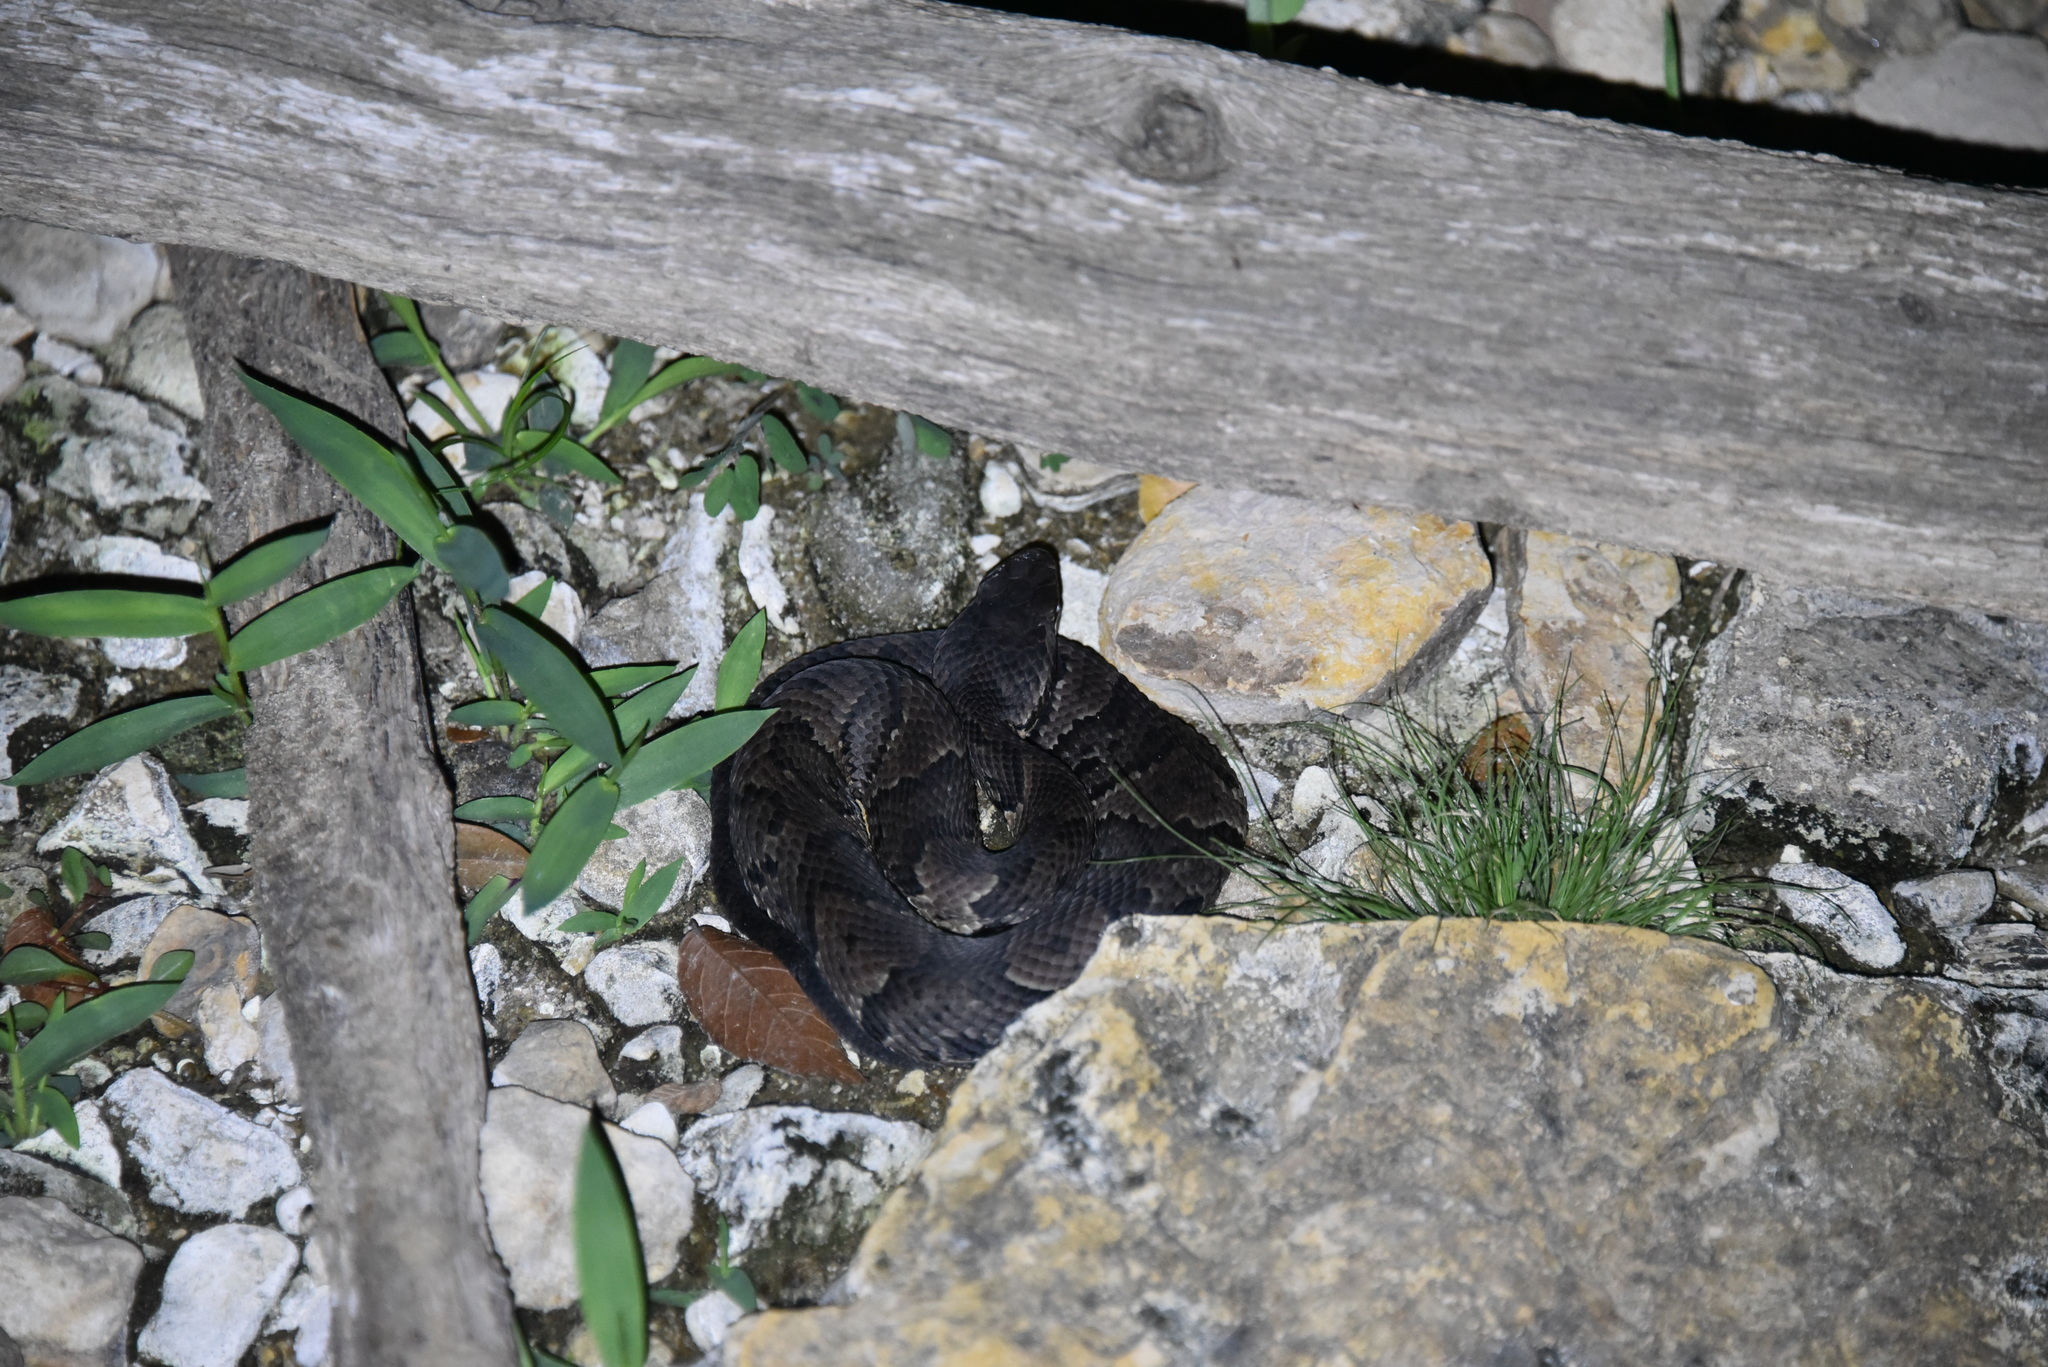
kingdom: Animalia
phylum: Chordata
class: Squamata
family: Viperidae
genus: Agkistrodon
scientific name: Agkistrodon piscivorus
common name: Cottonmouth
